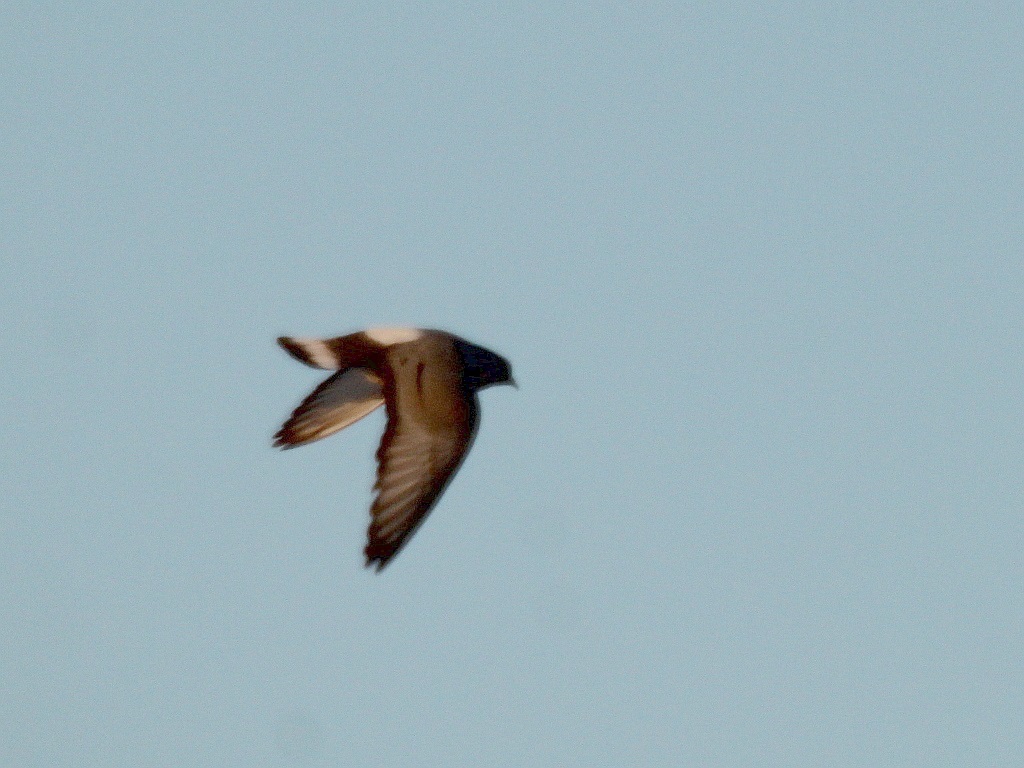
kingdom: Animalia
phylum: Chordata
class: Aves
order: Columbiformes
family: Columbidae
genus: Columba
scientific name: Columba rupestris
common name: Hill pigeon
